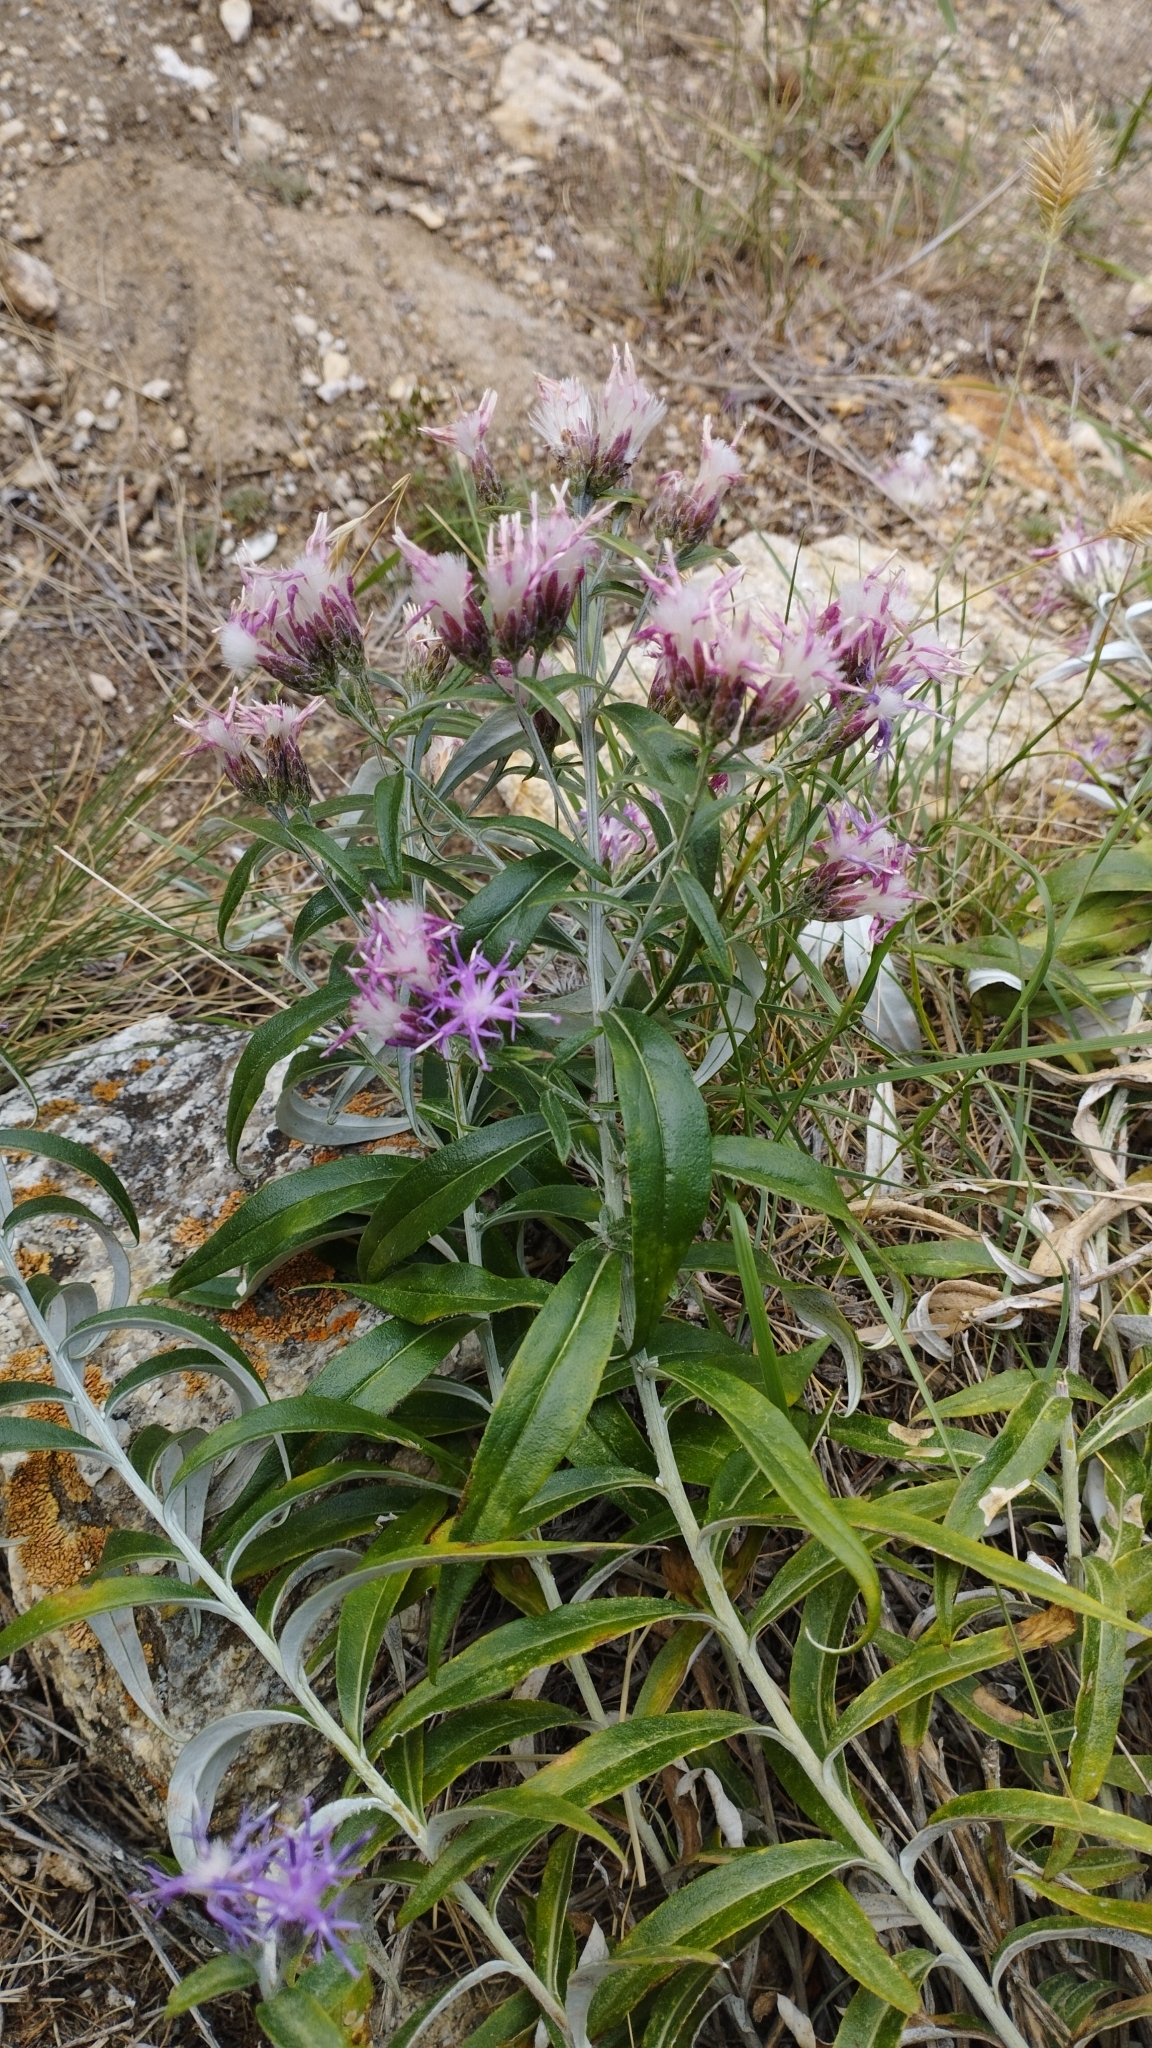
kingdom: Plantae
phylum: Tracheophyta
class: Magnoliopsida
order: Asterales
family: Asteraceae
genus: Saussurea
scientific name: Saussurea salicifolia
